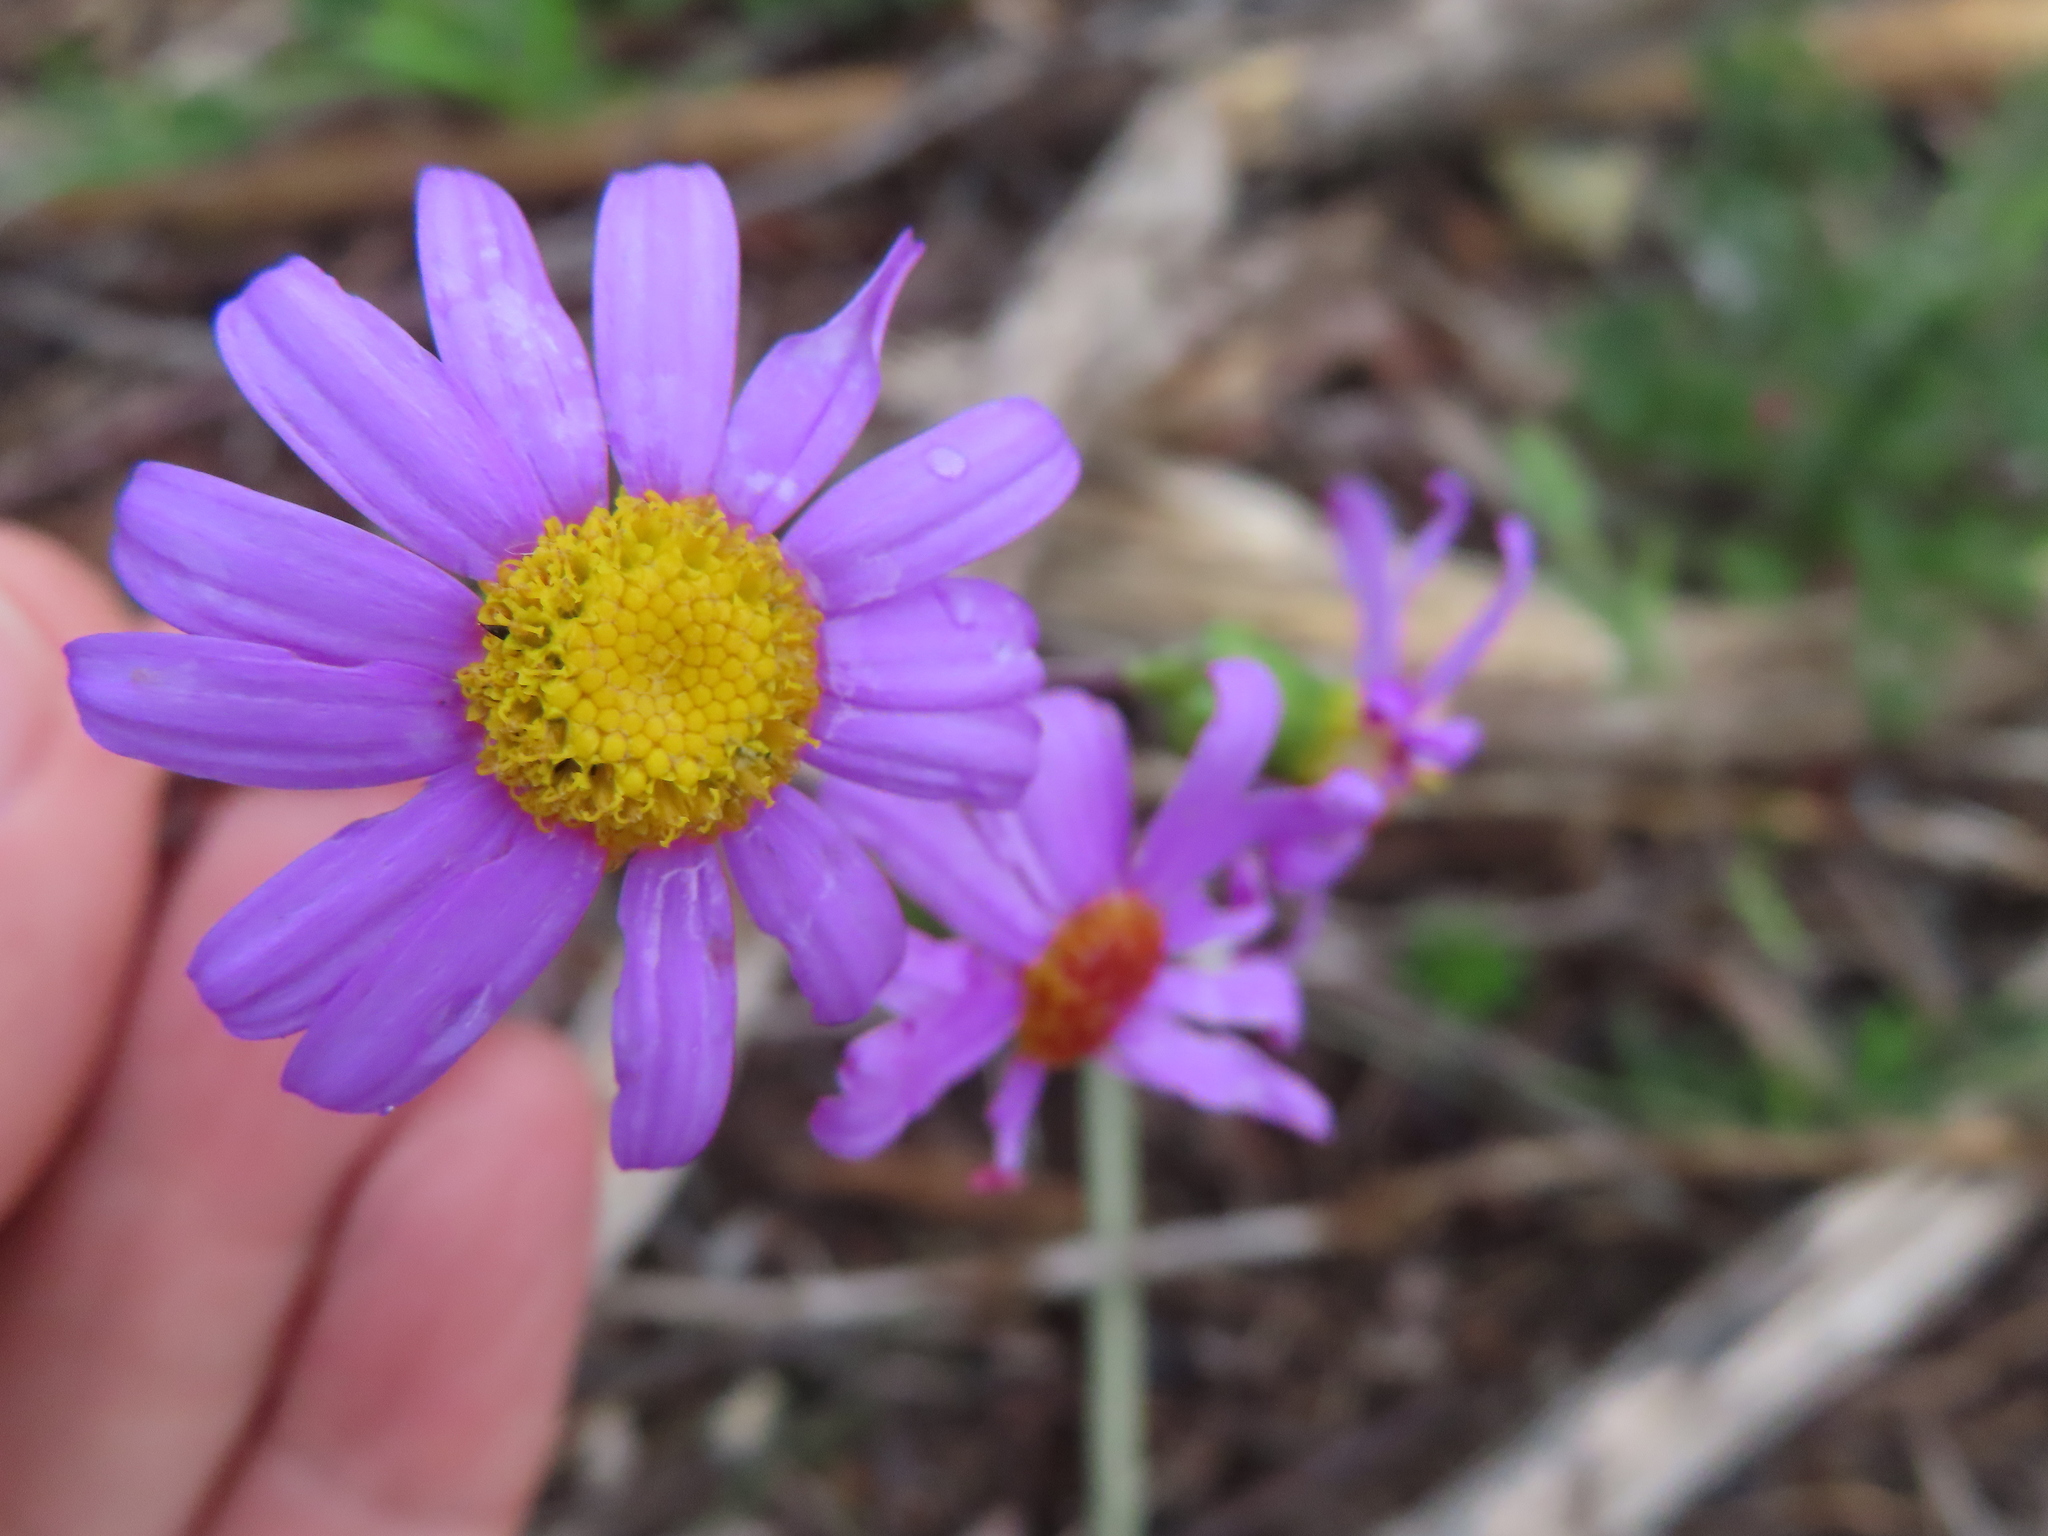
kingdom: Plantae
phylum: Tracheophyta
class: Magnoliopsida
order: Asterales
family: Asteraceae
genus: Senecio
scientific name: Senecio elegans
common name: Purple groundsel
